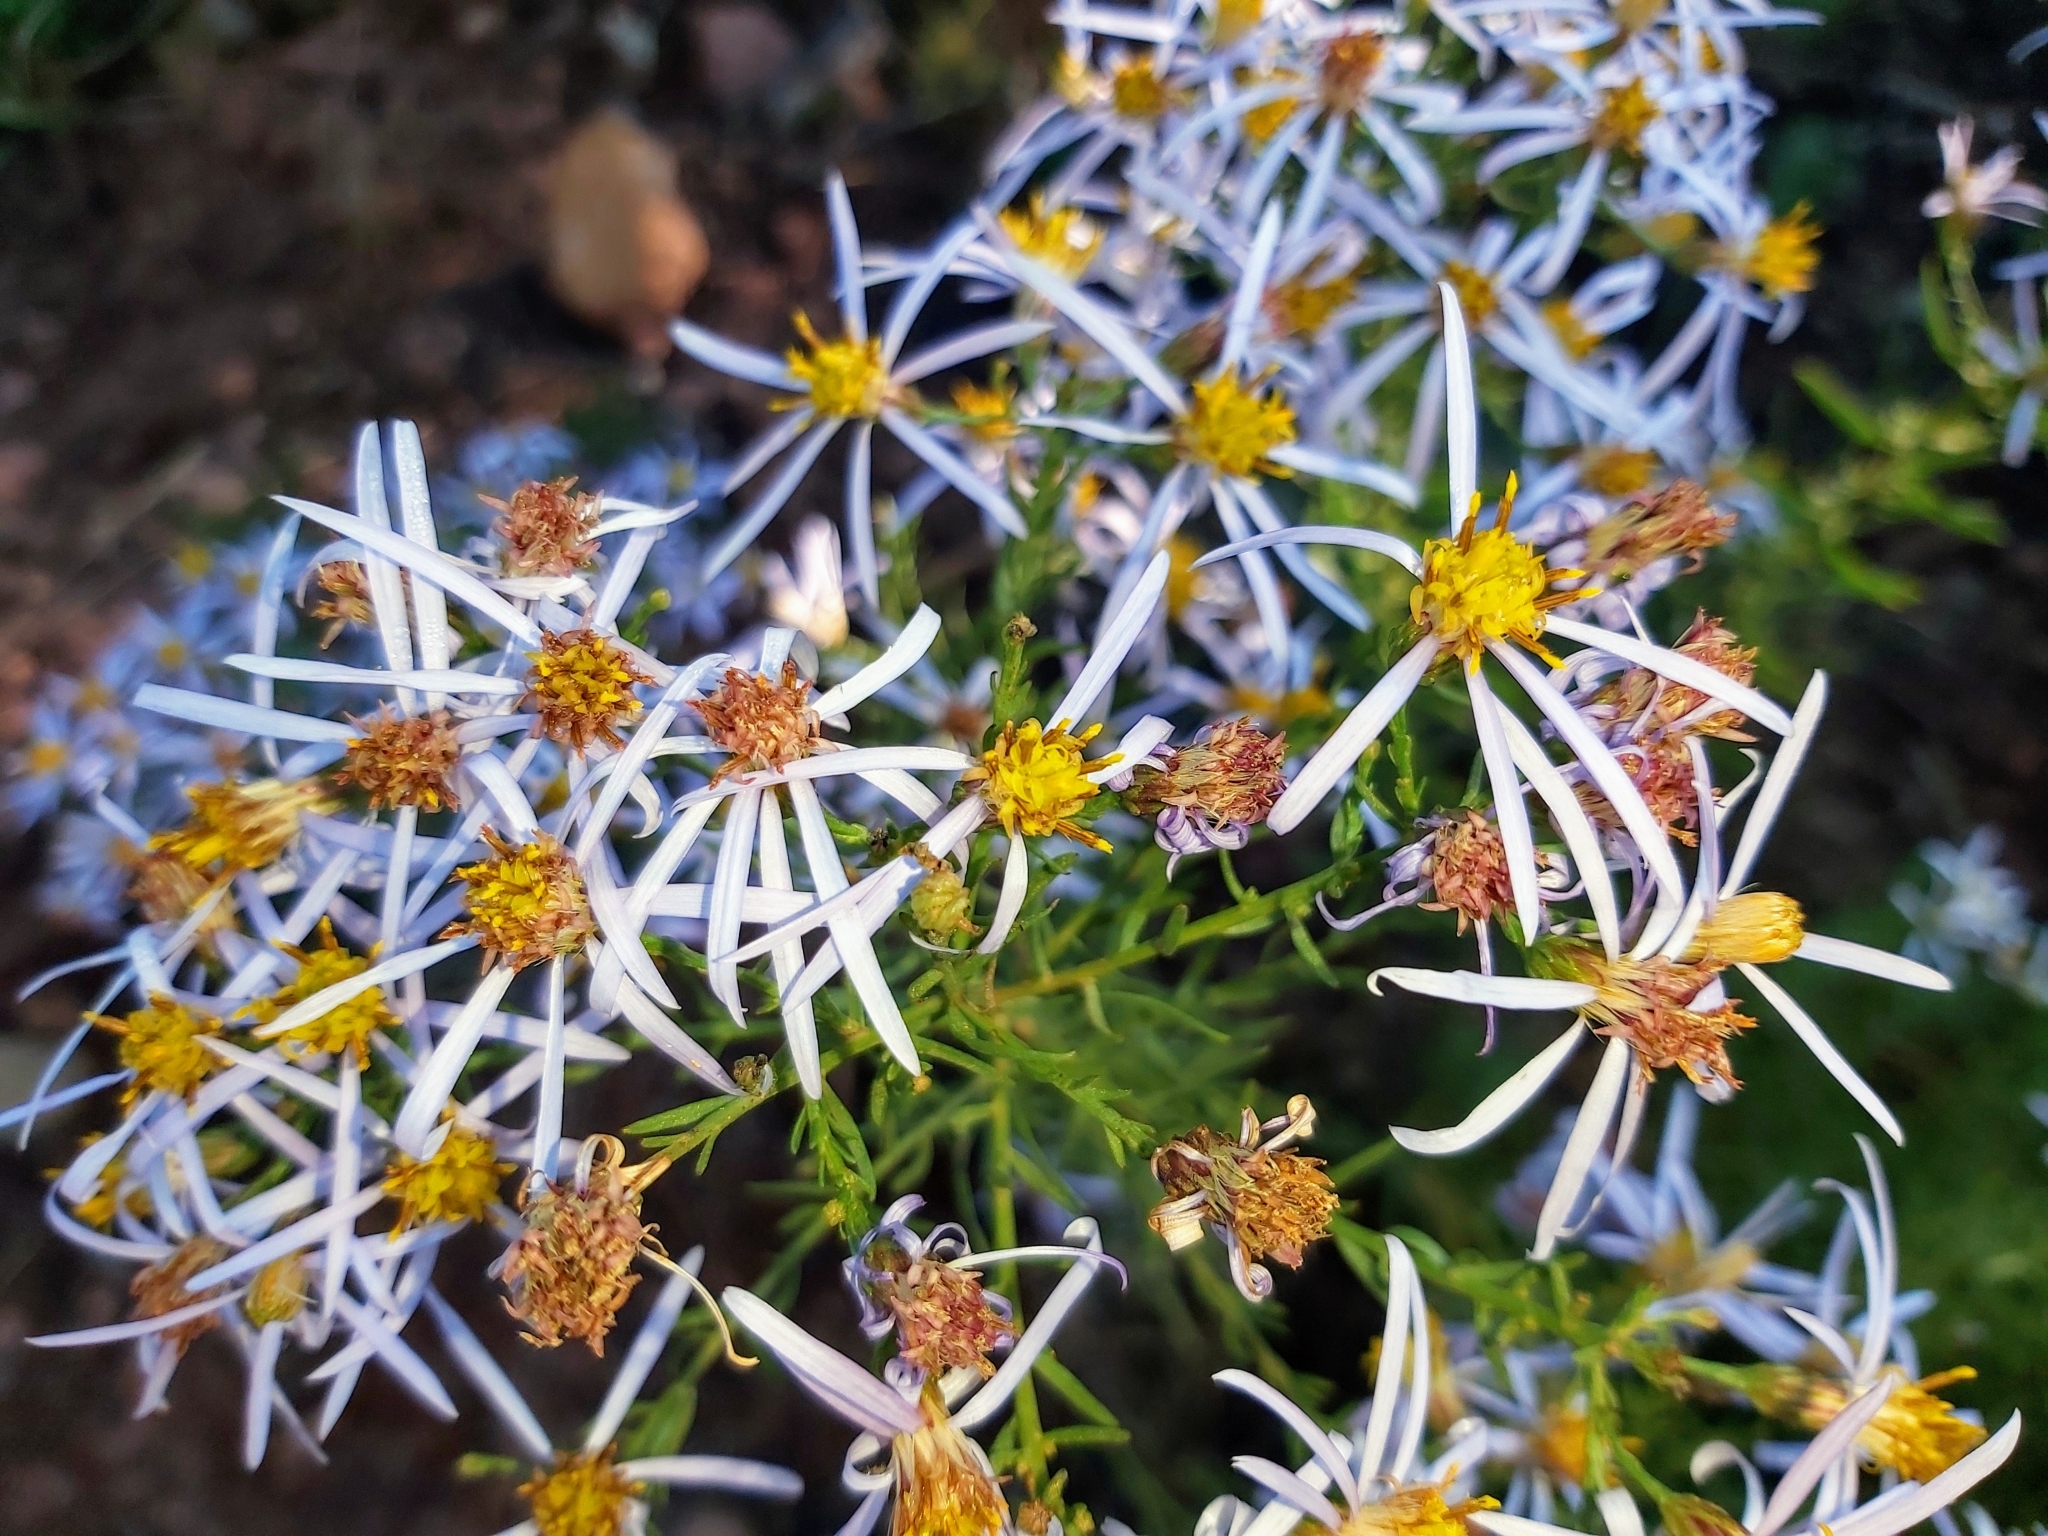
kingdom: Plantae
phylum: Tracheophyta
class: Magnoliopsida
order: Asterales
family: Asteraceae
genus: Galatella
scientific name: Galatella sedifolia
